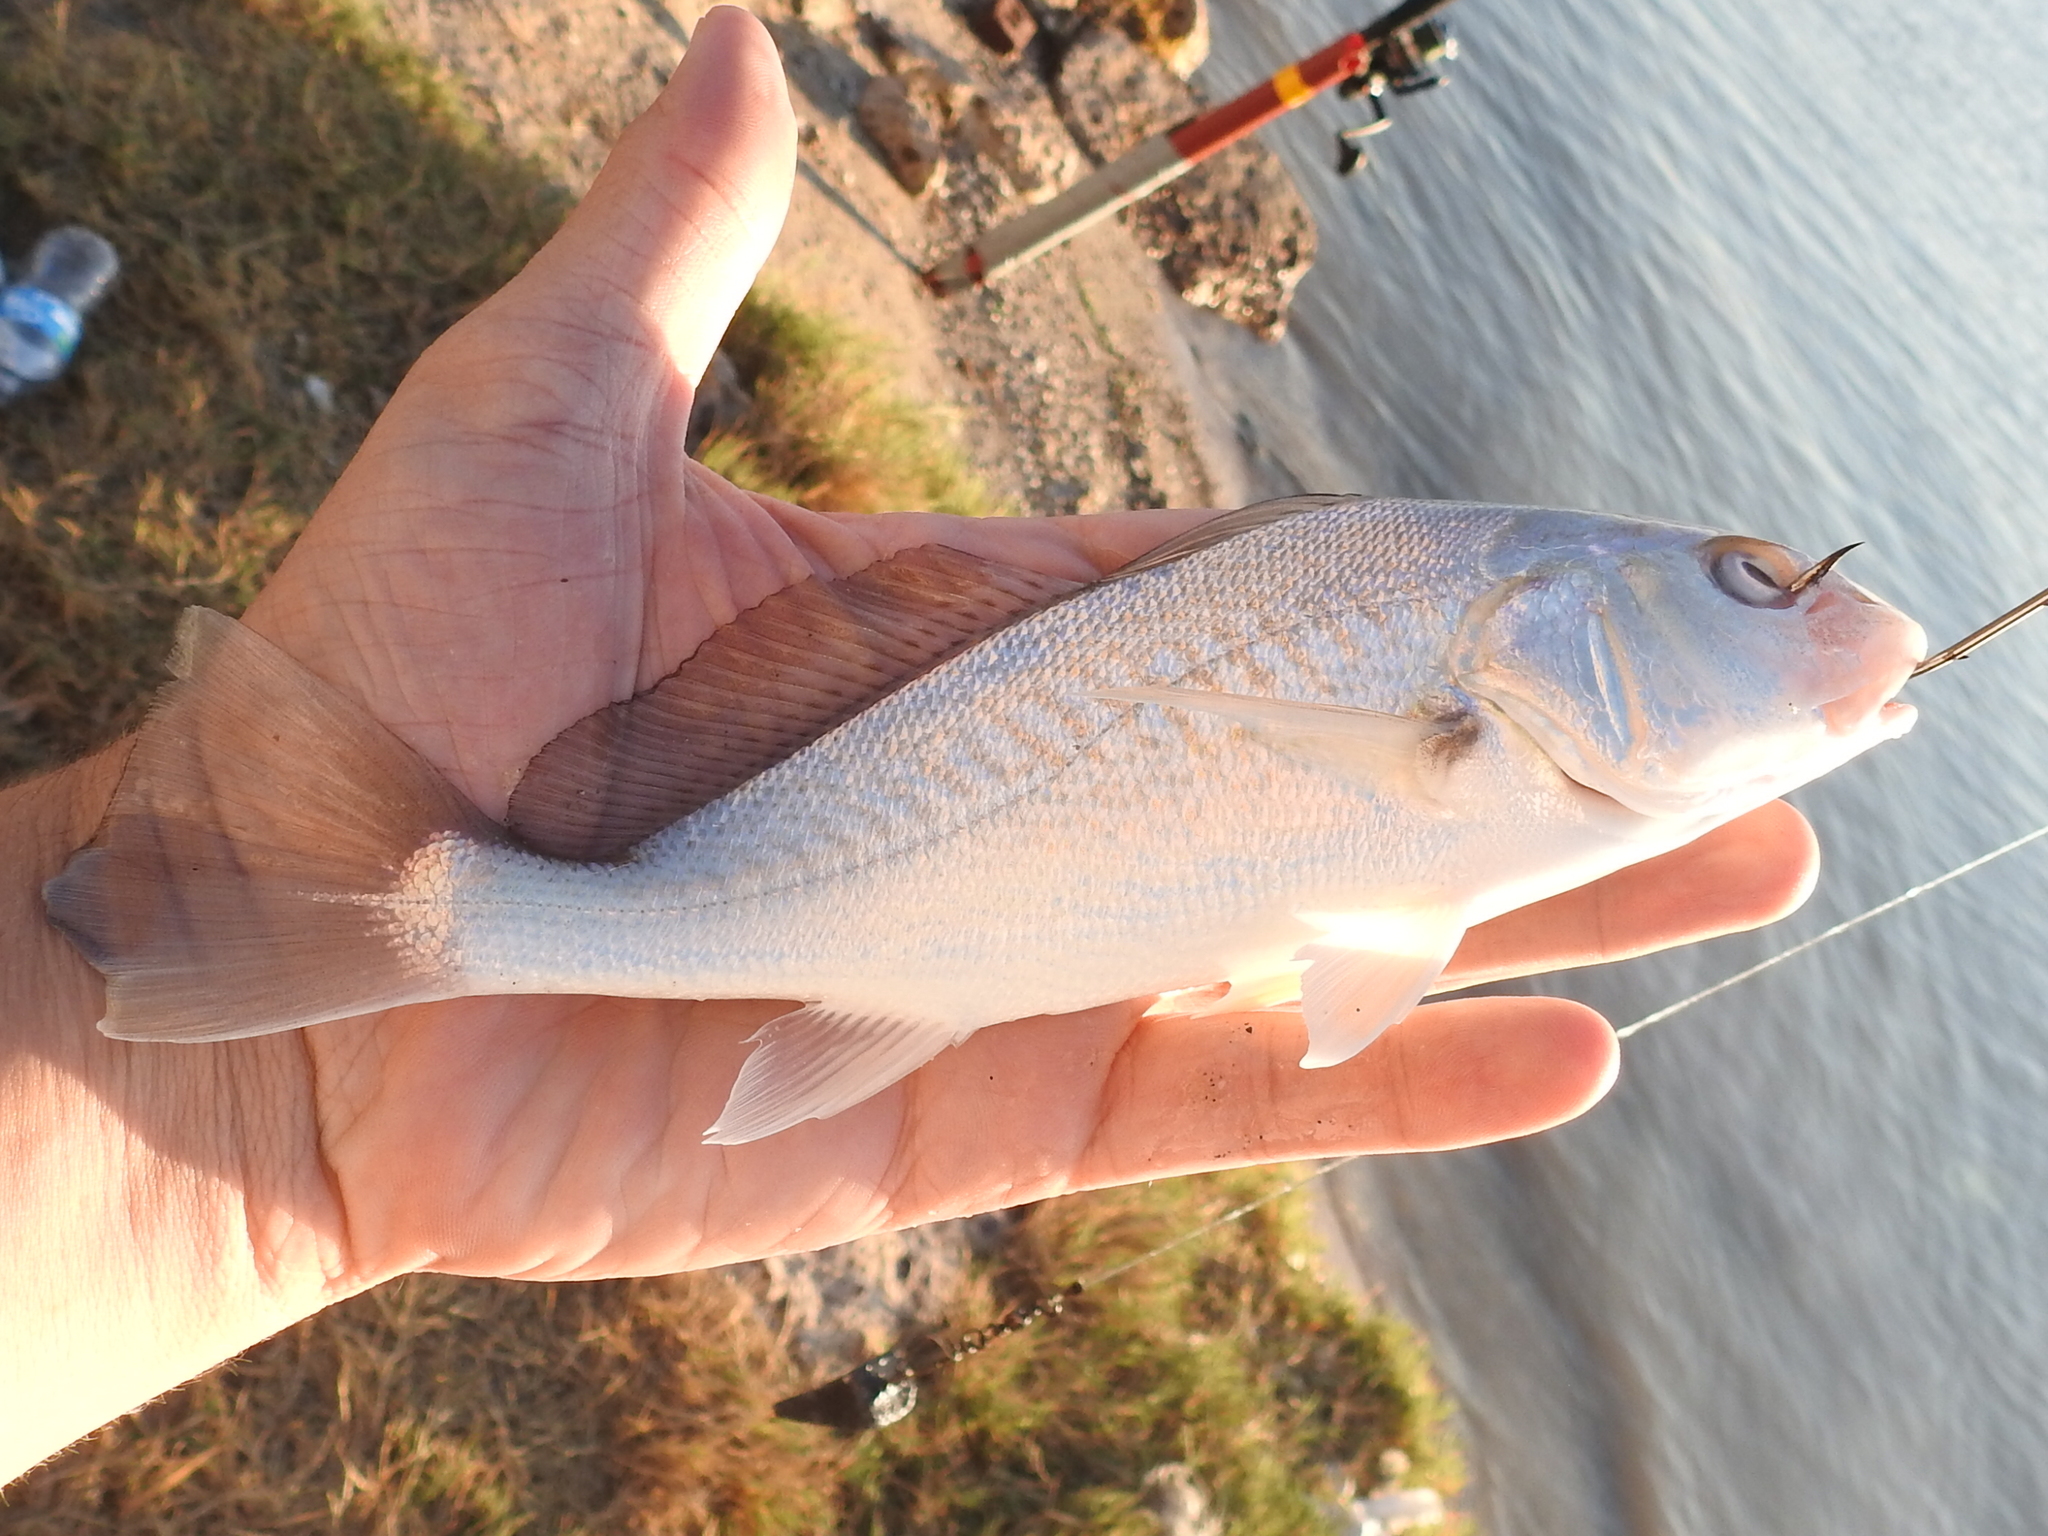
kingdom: Animalia
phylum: Chordata
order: Perciformes
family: Sciaenidae
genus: Micropogonias
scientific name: Micropogonias undulatus
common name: Atlantic croaker
